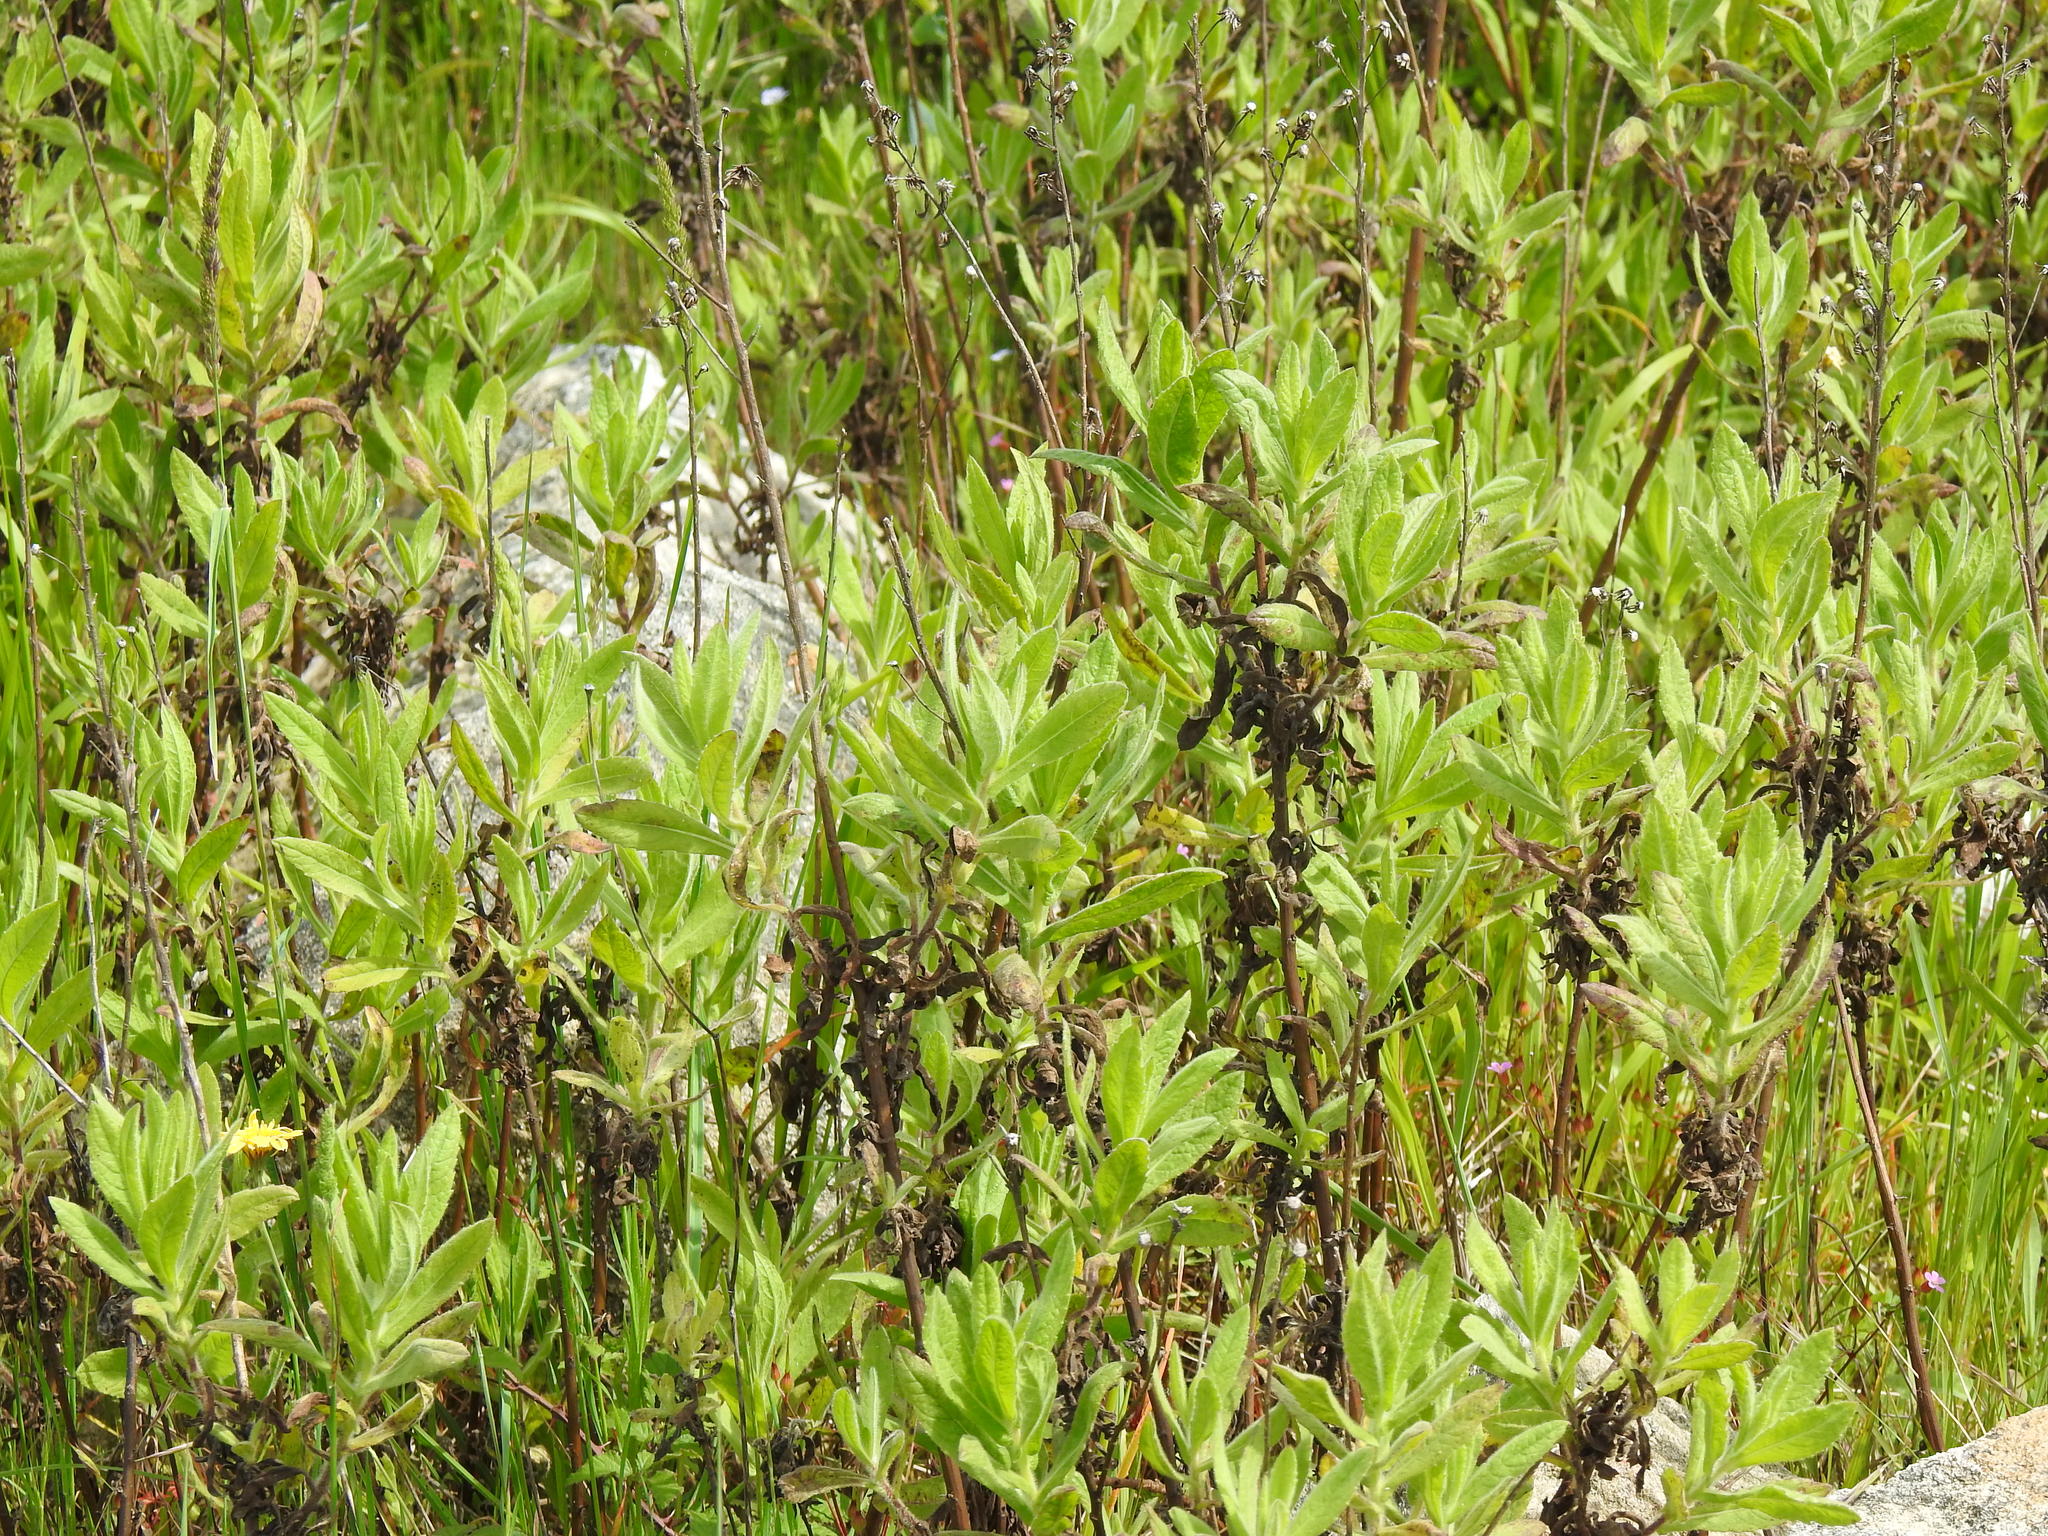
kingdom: Plantae
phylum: Tracheophyta
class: Magnoliopsida
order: Asterales
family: Asteraceae
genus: Dittrichia
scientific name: Dittrichia viscosa
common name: Woody fleabane
